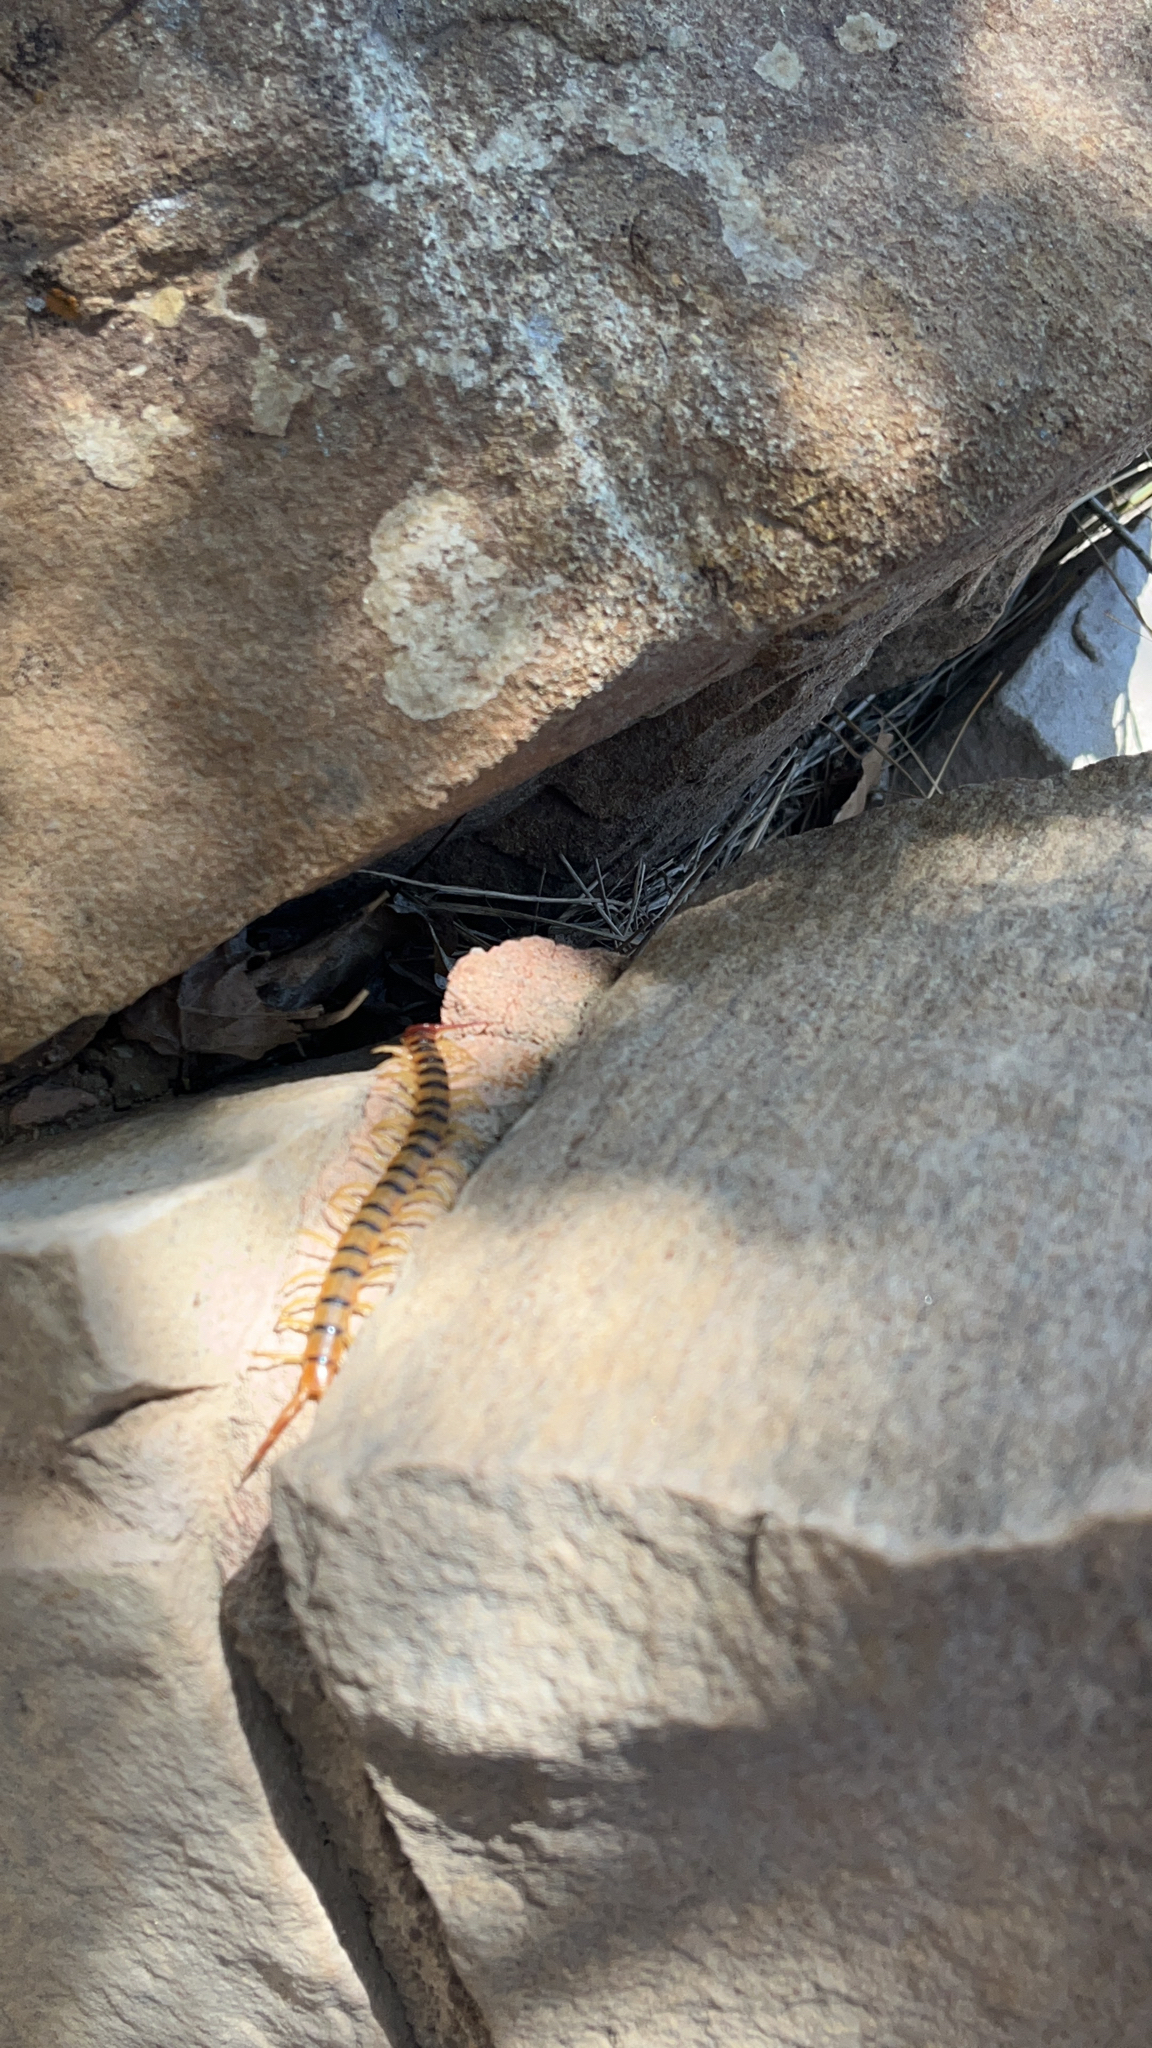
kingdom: Animalia
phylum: Arthropoda
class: Chilopoda
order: Scolopendromorpha
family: Scolopendridae
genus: Scolopendra
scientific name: Scolopendra polymorpha
